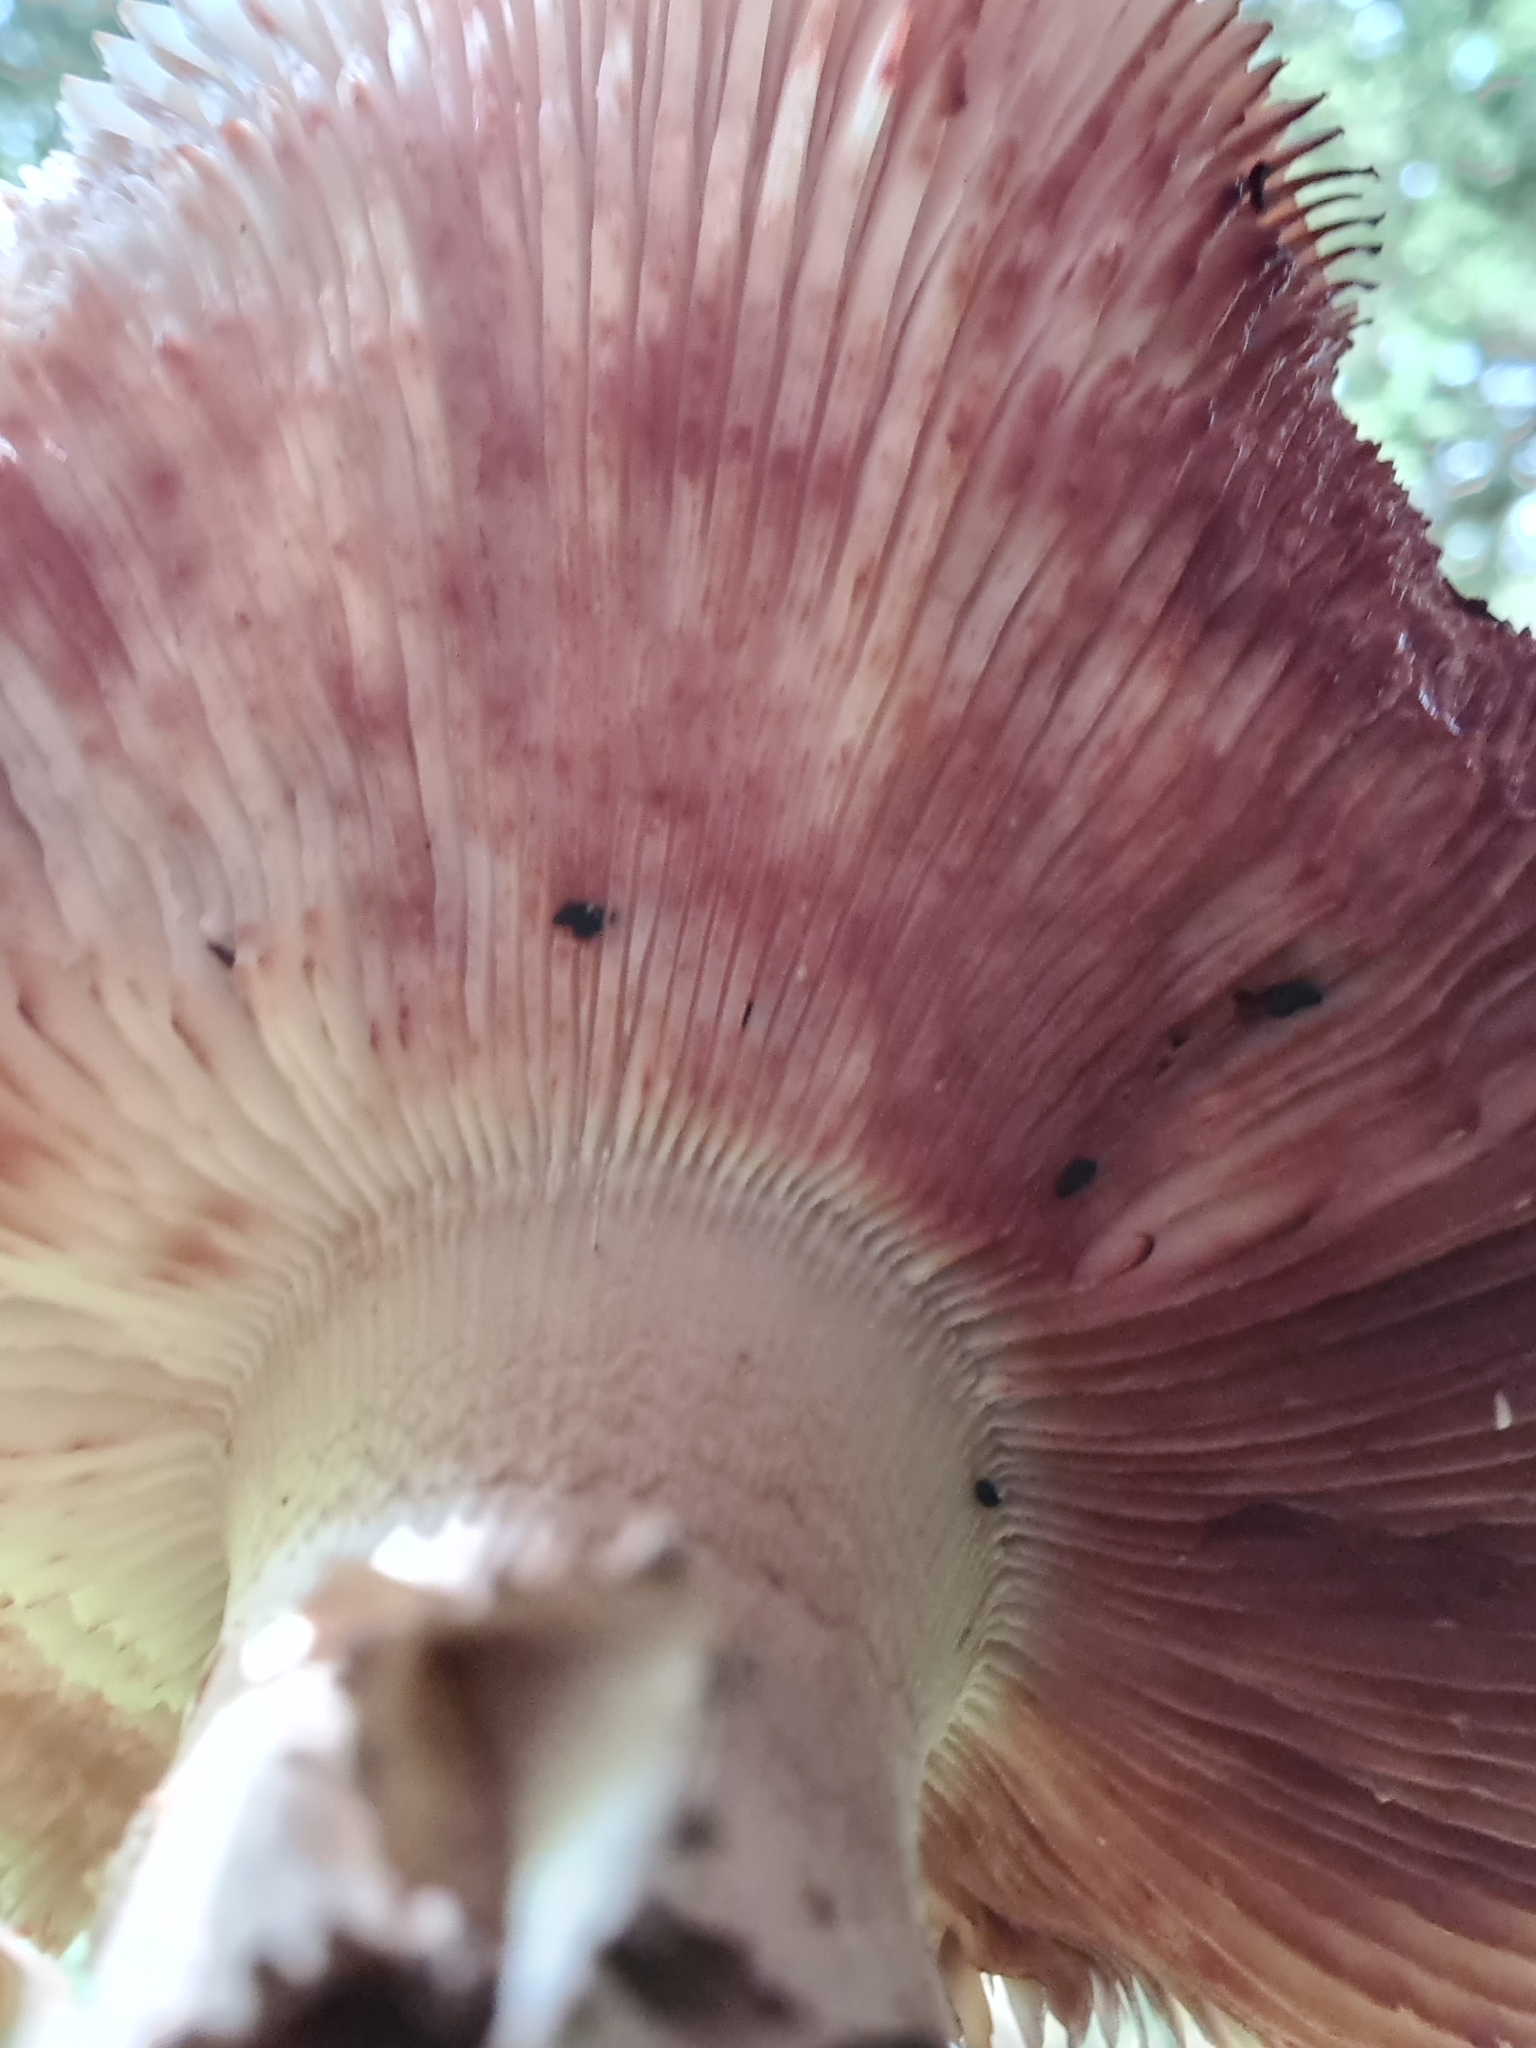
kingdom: Fungi
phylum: Basidiomycota
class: Agaricomycetes
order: Agaricales
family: Amanitaceae
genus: Amanita
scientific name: Amanita rubescens
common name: Blusher
